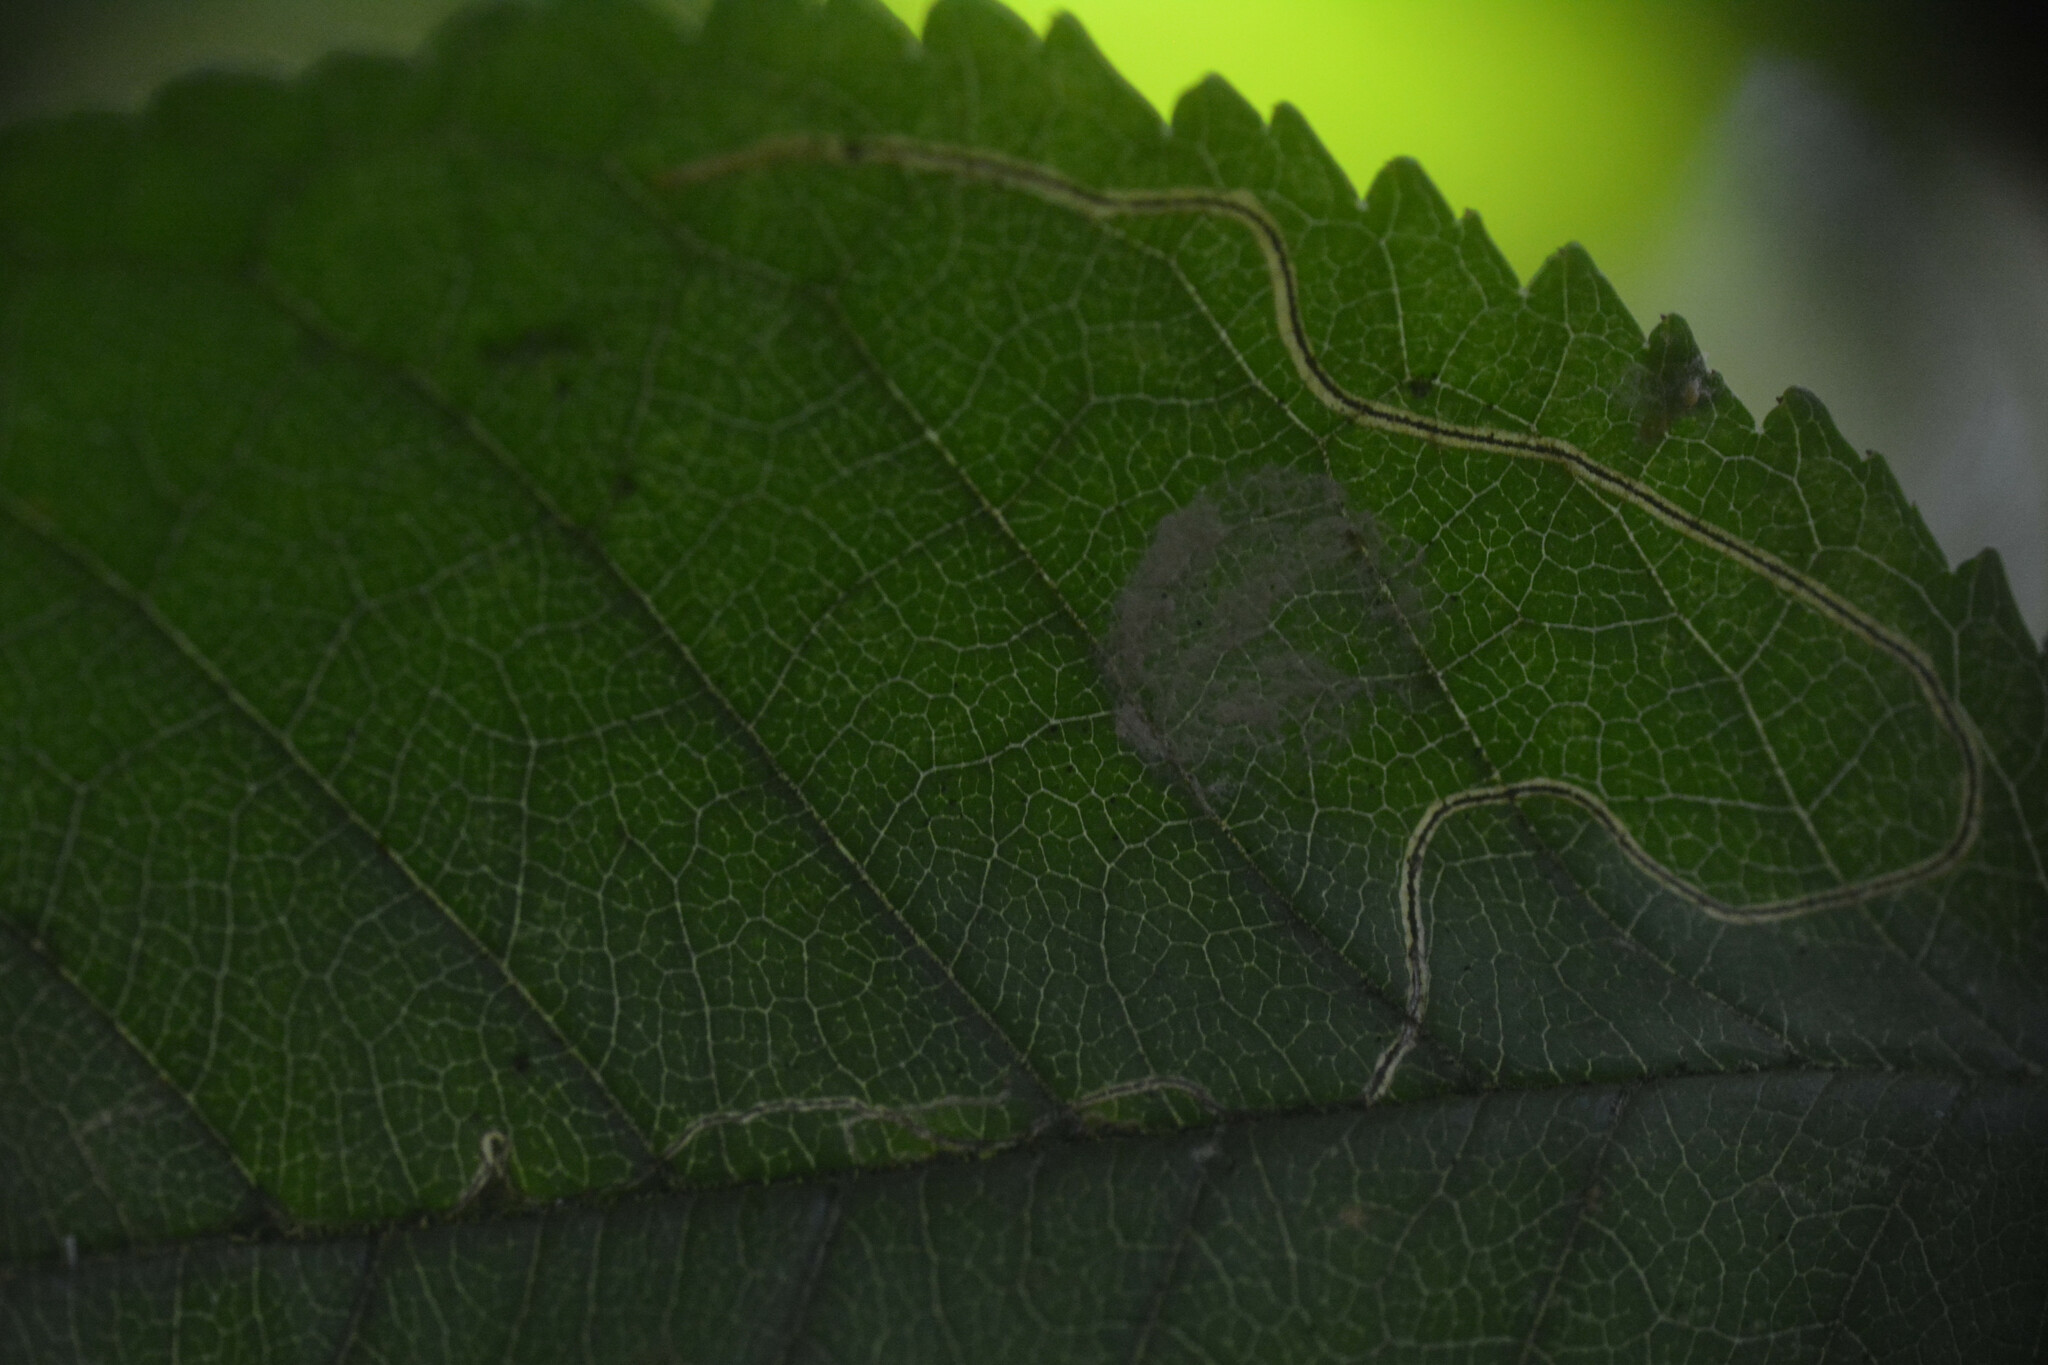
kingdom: Animalia
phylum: Arthropoda
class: Insecta
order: Lepidoptera
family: Lyonetiidae
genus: Lyonetia
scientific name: Lyonetia clerkella
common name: Apple leaf miner
